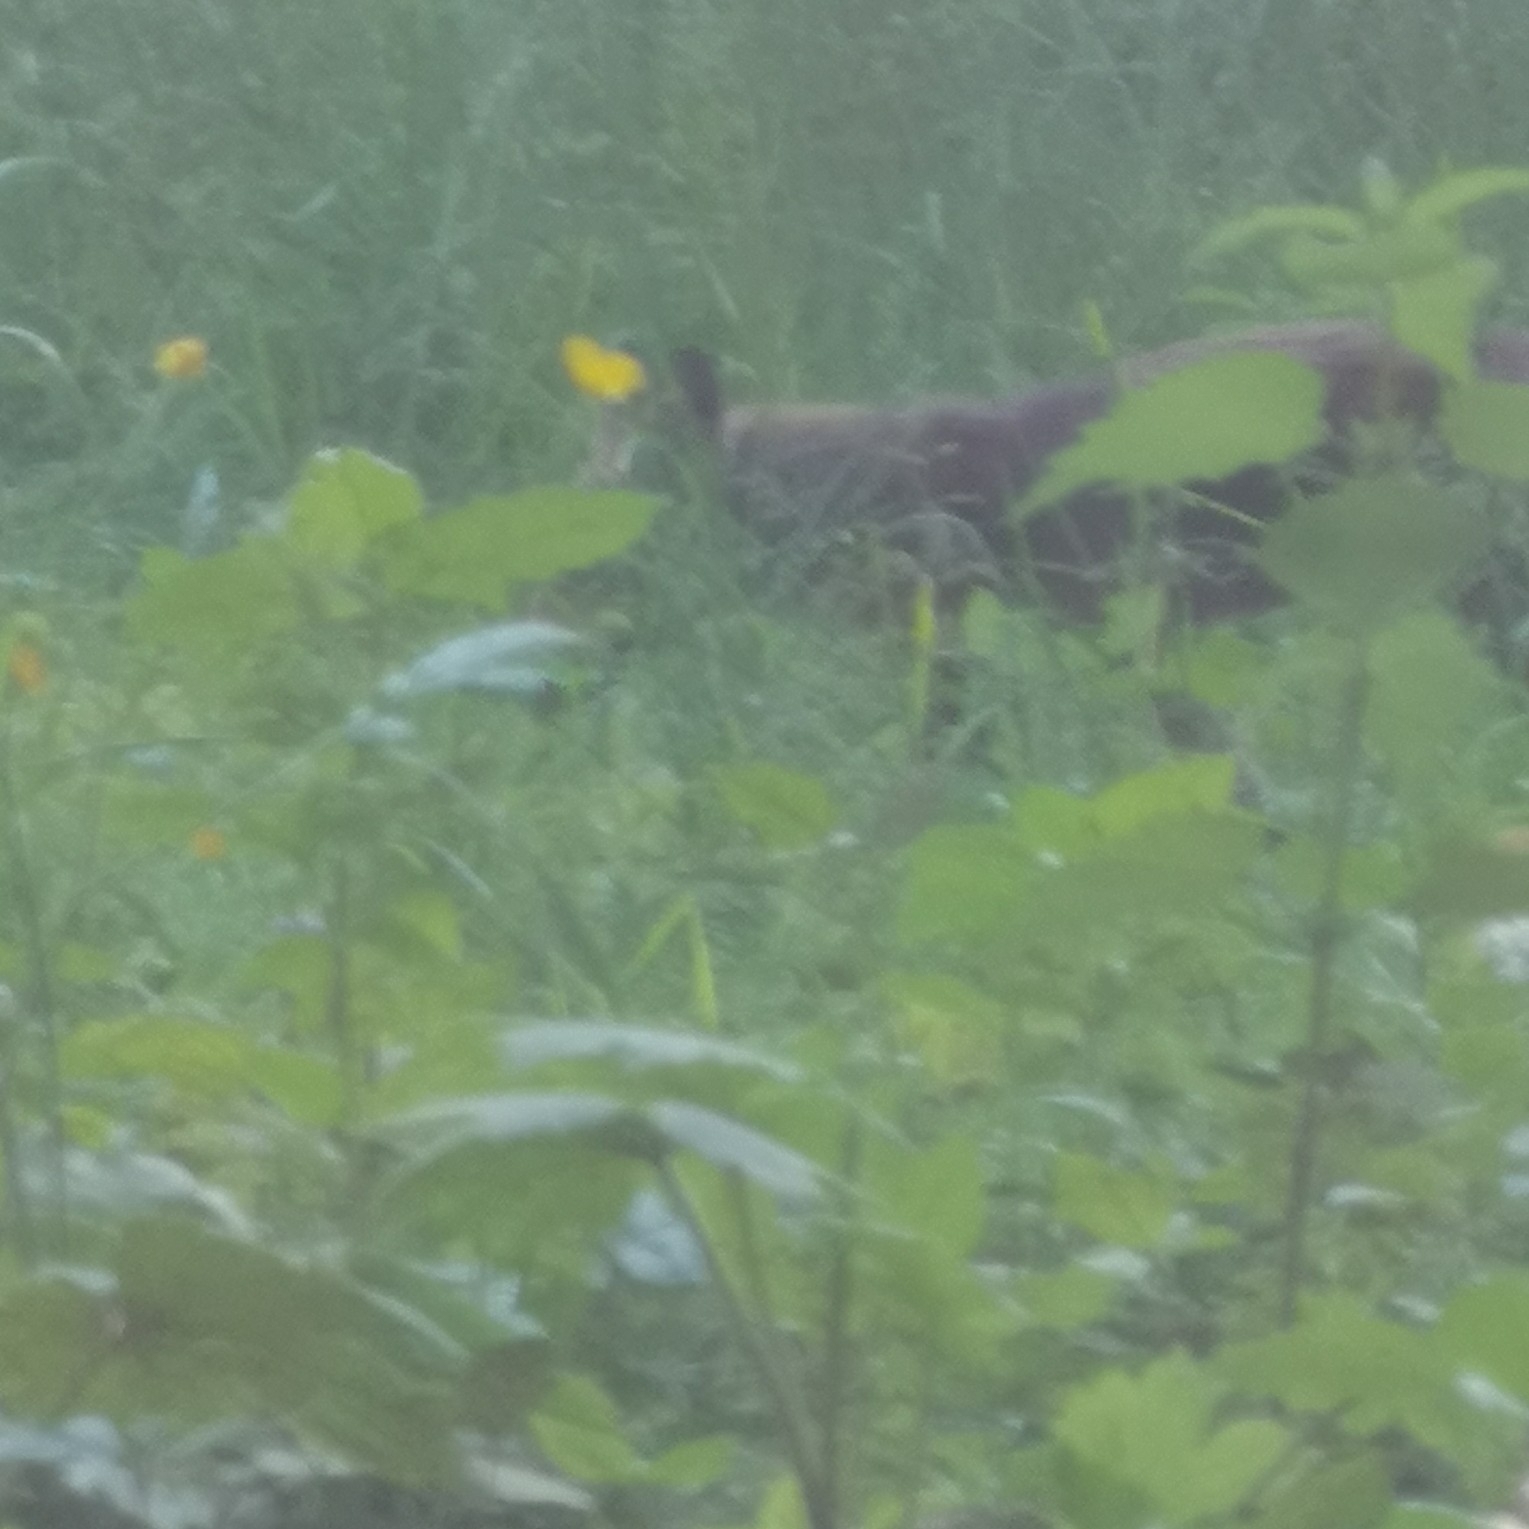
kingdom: Animalia
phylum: Chordata
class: Mammalia
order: Carnivora
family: Canidae
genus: Vulpes
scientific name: Vulpes vulpes
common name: Red fox
